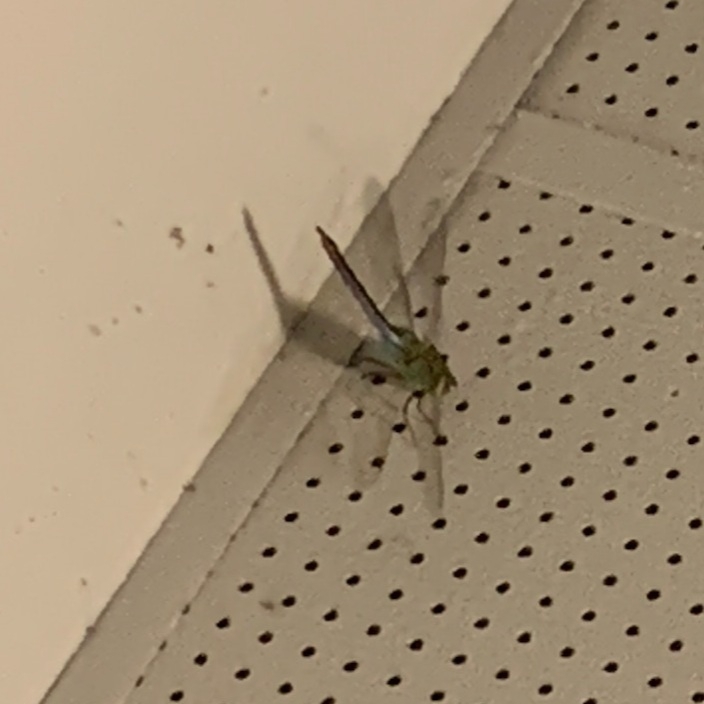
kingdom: Animalia
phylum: Arthropoda
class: Insecta
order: Odonata
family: Aeshnidae
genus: Anax
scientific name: Anax junius
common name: Common green darner
